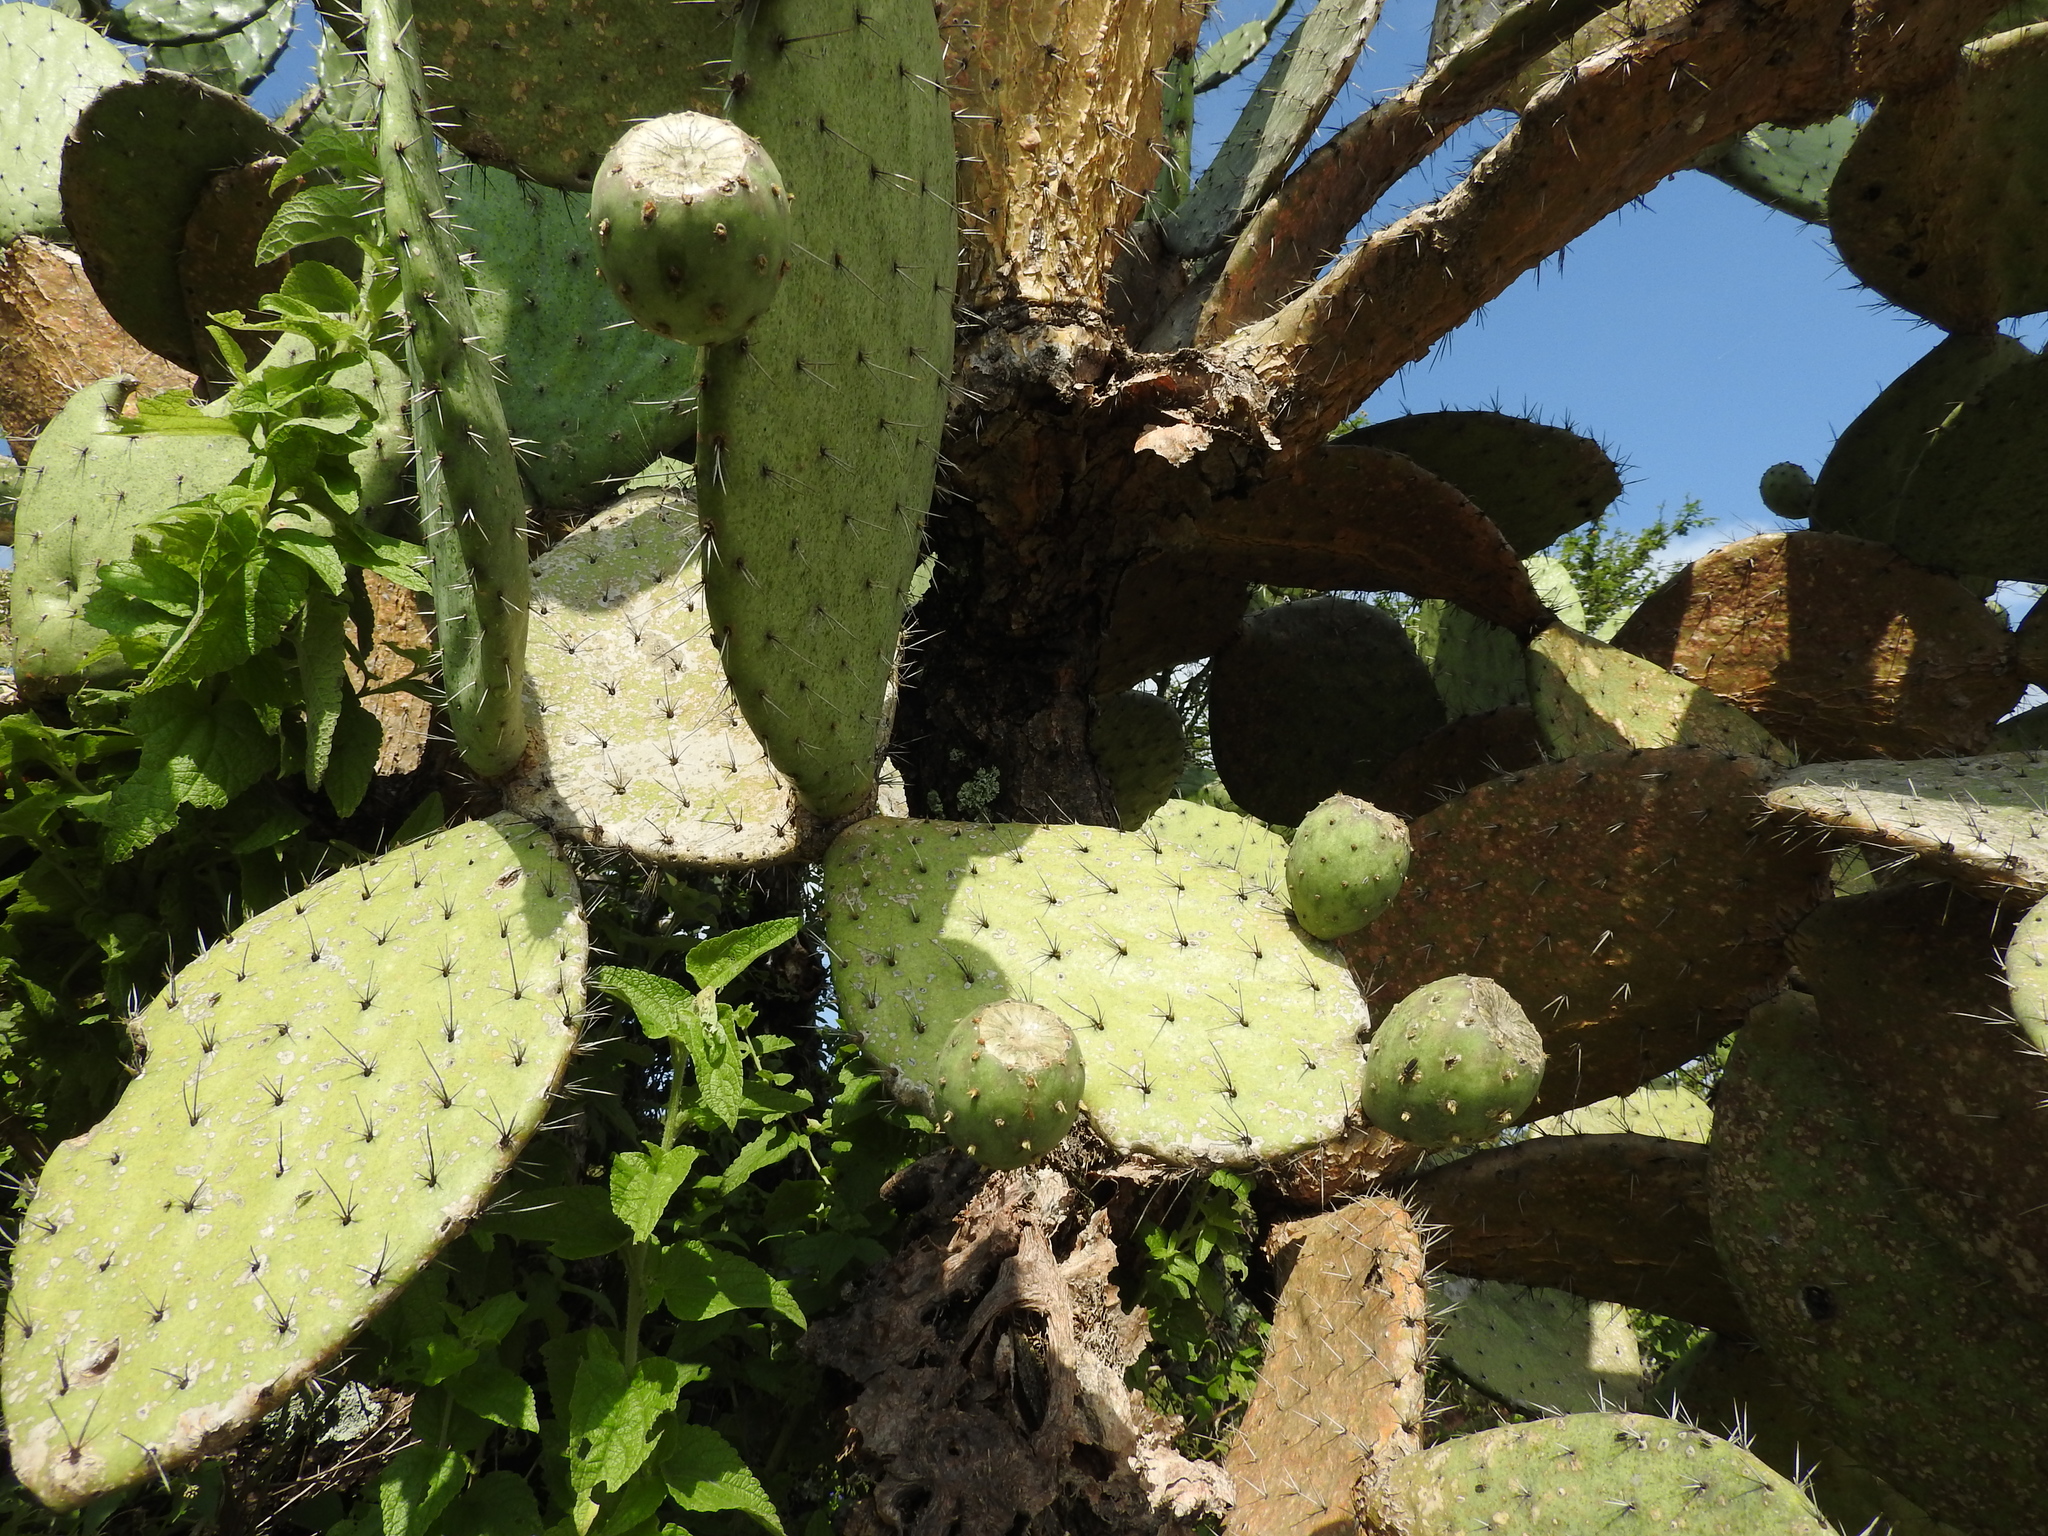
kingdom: Plantae
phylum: Tracheophyta
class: Magnoliopsida
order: Caryophyllales
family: Cactaceae
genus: Opuntia
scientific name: Opuntia joconostle
